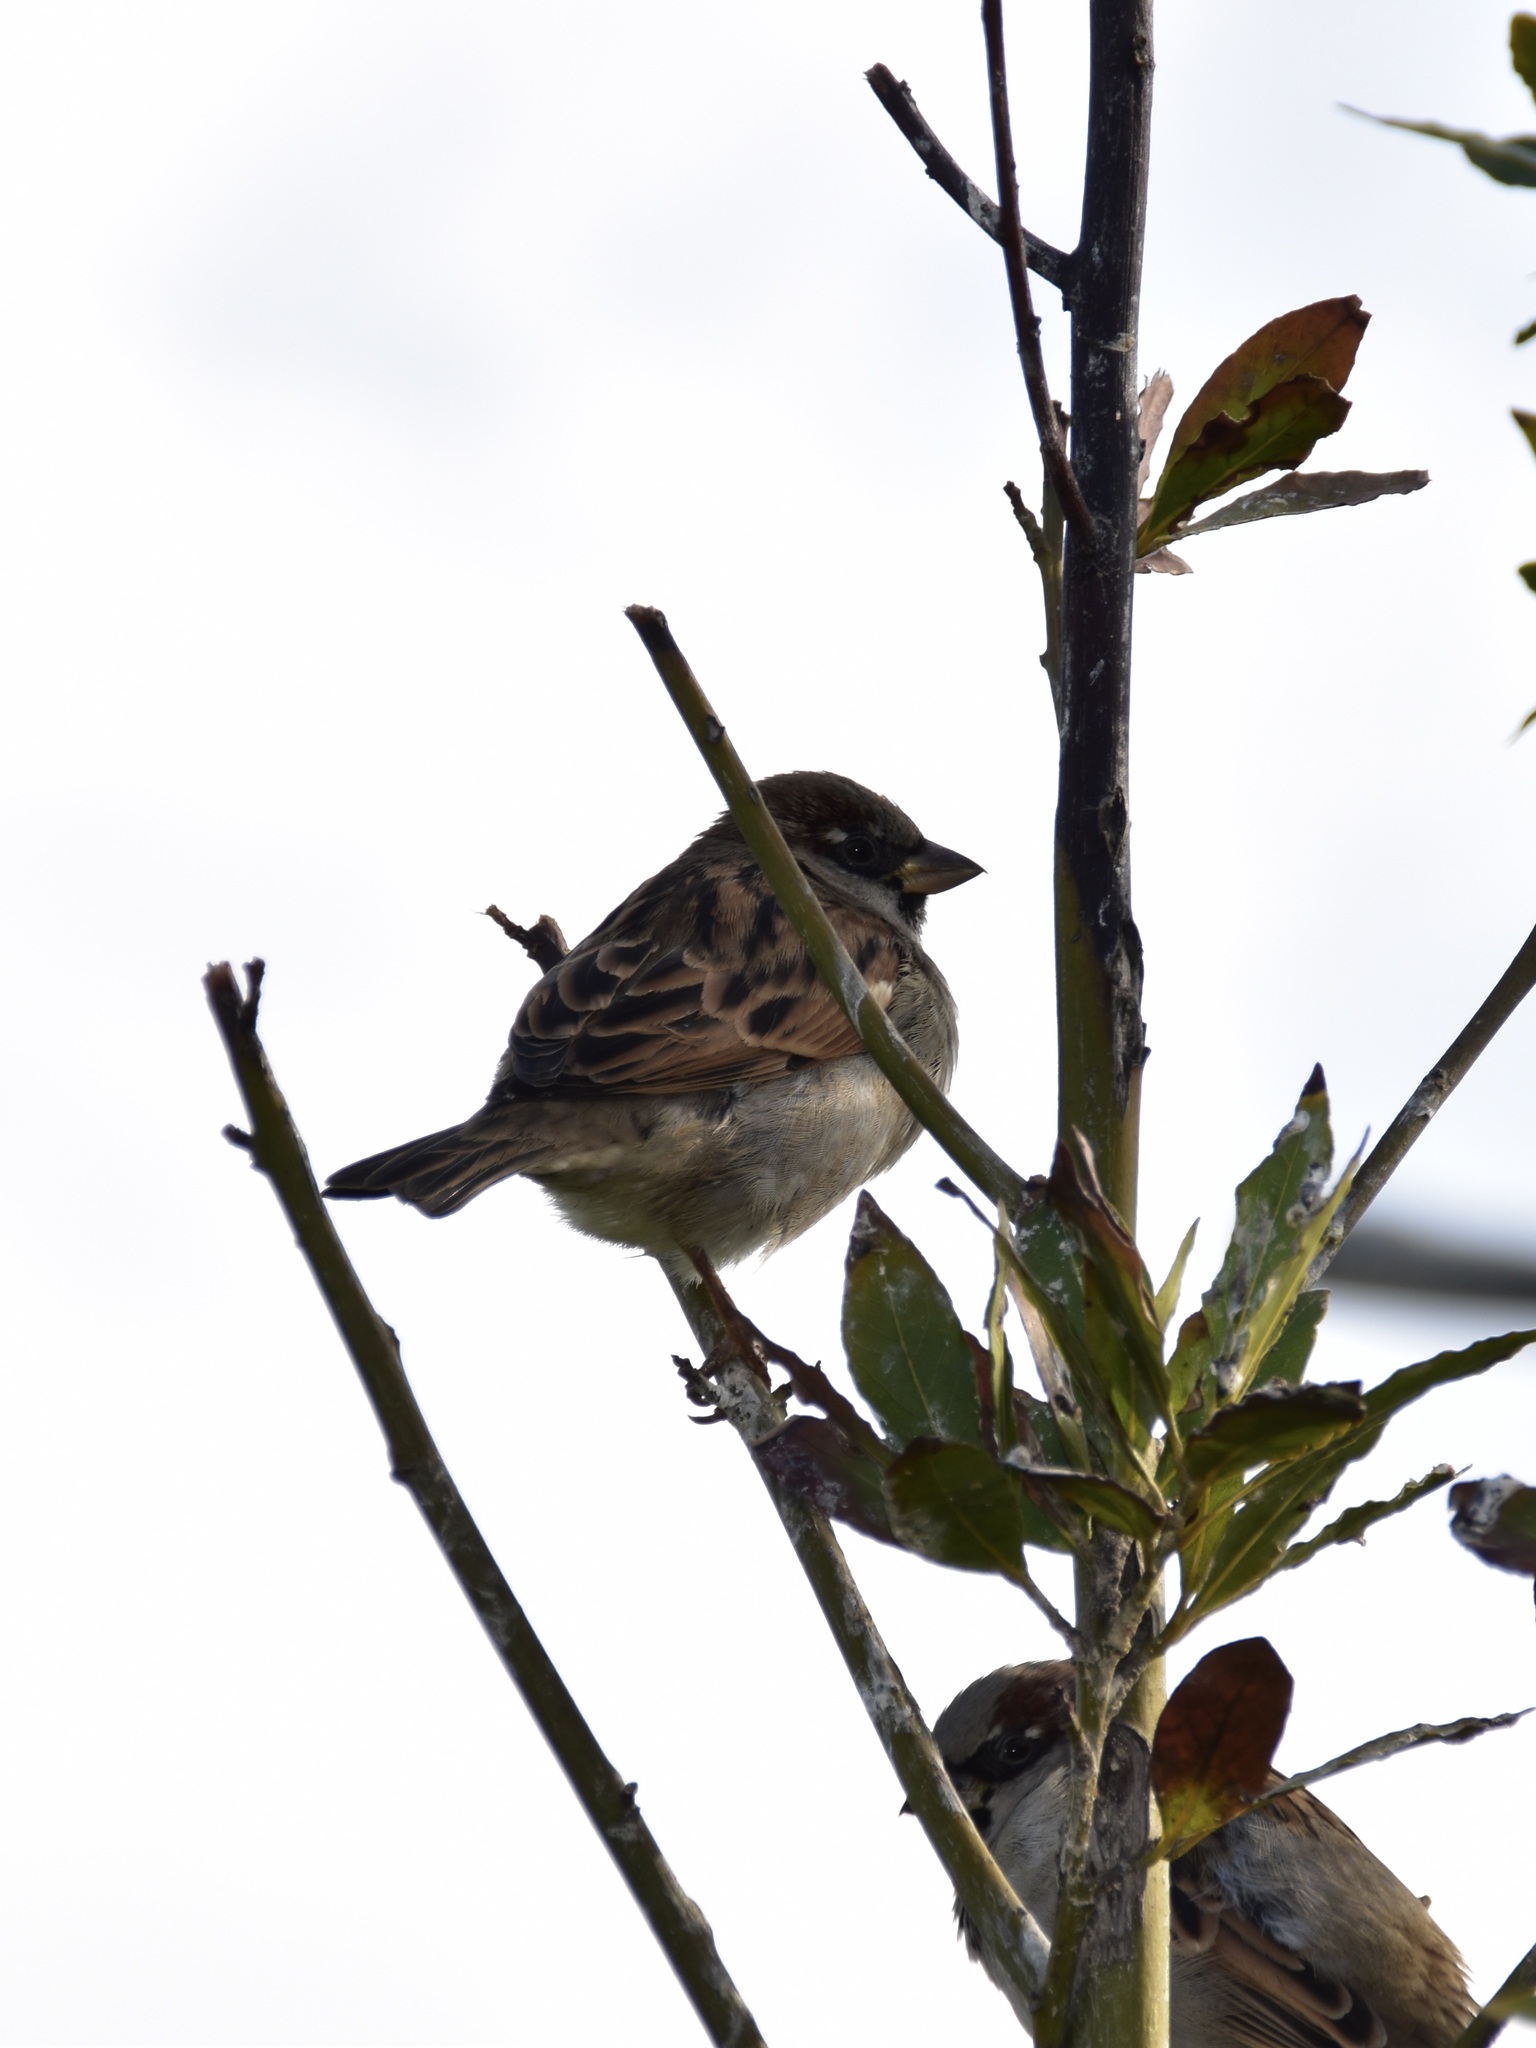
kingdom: Animalia
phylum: Chordata
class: Aves
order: Passeriformes
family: Passeridae
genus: Passer
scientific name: Passer domesticus
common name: House sparrow
